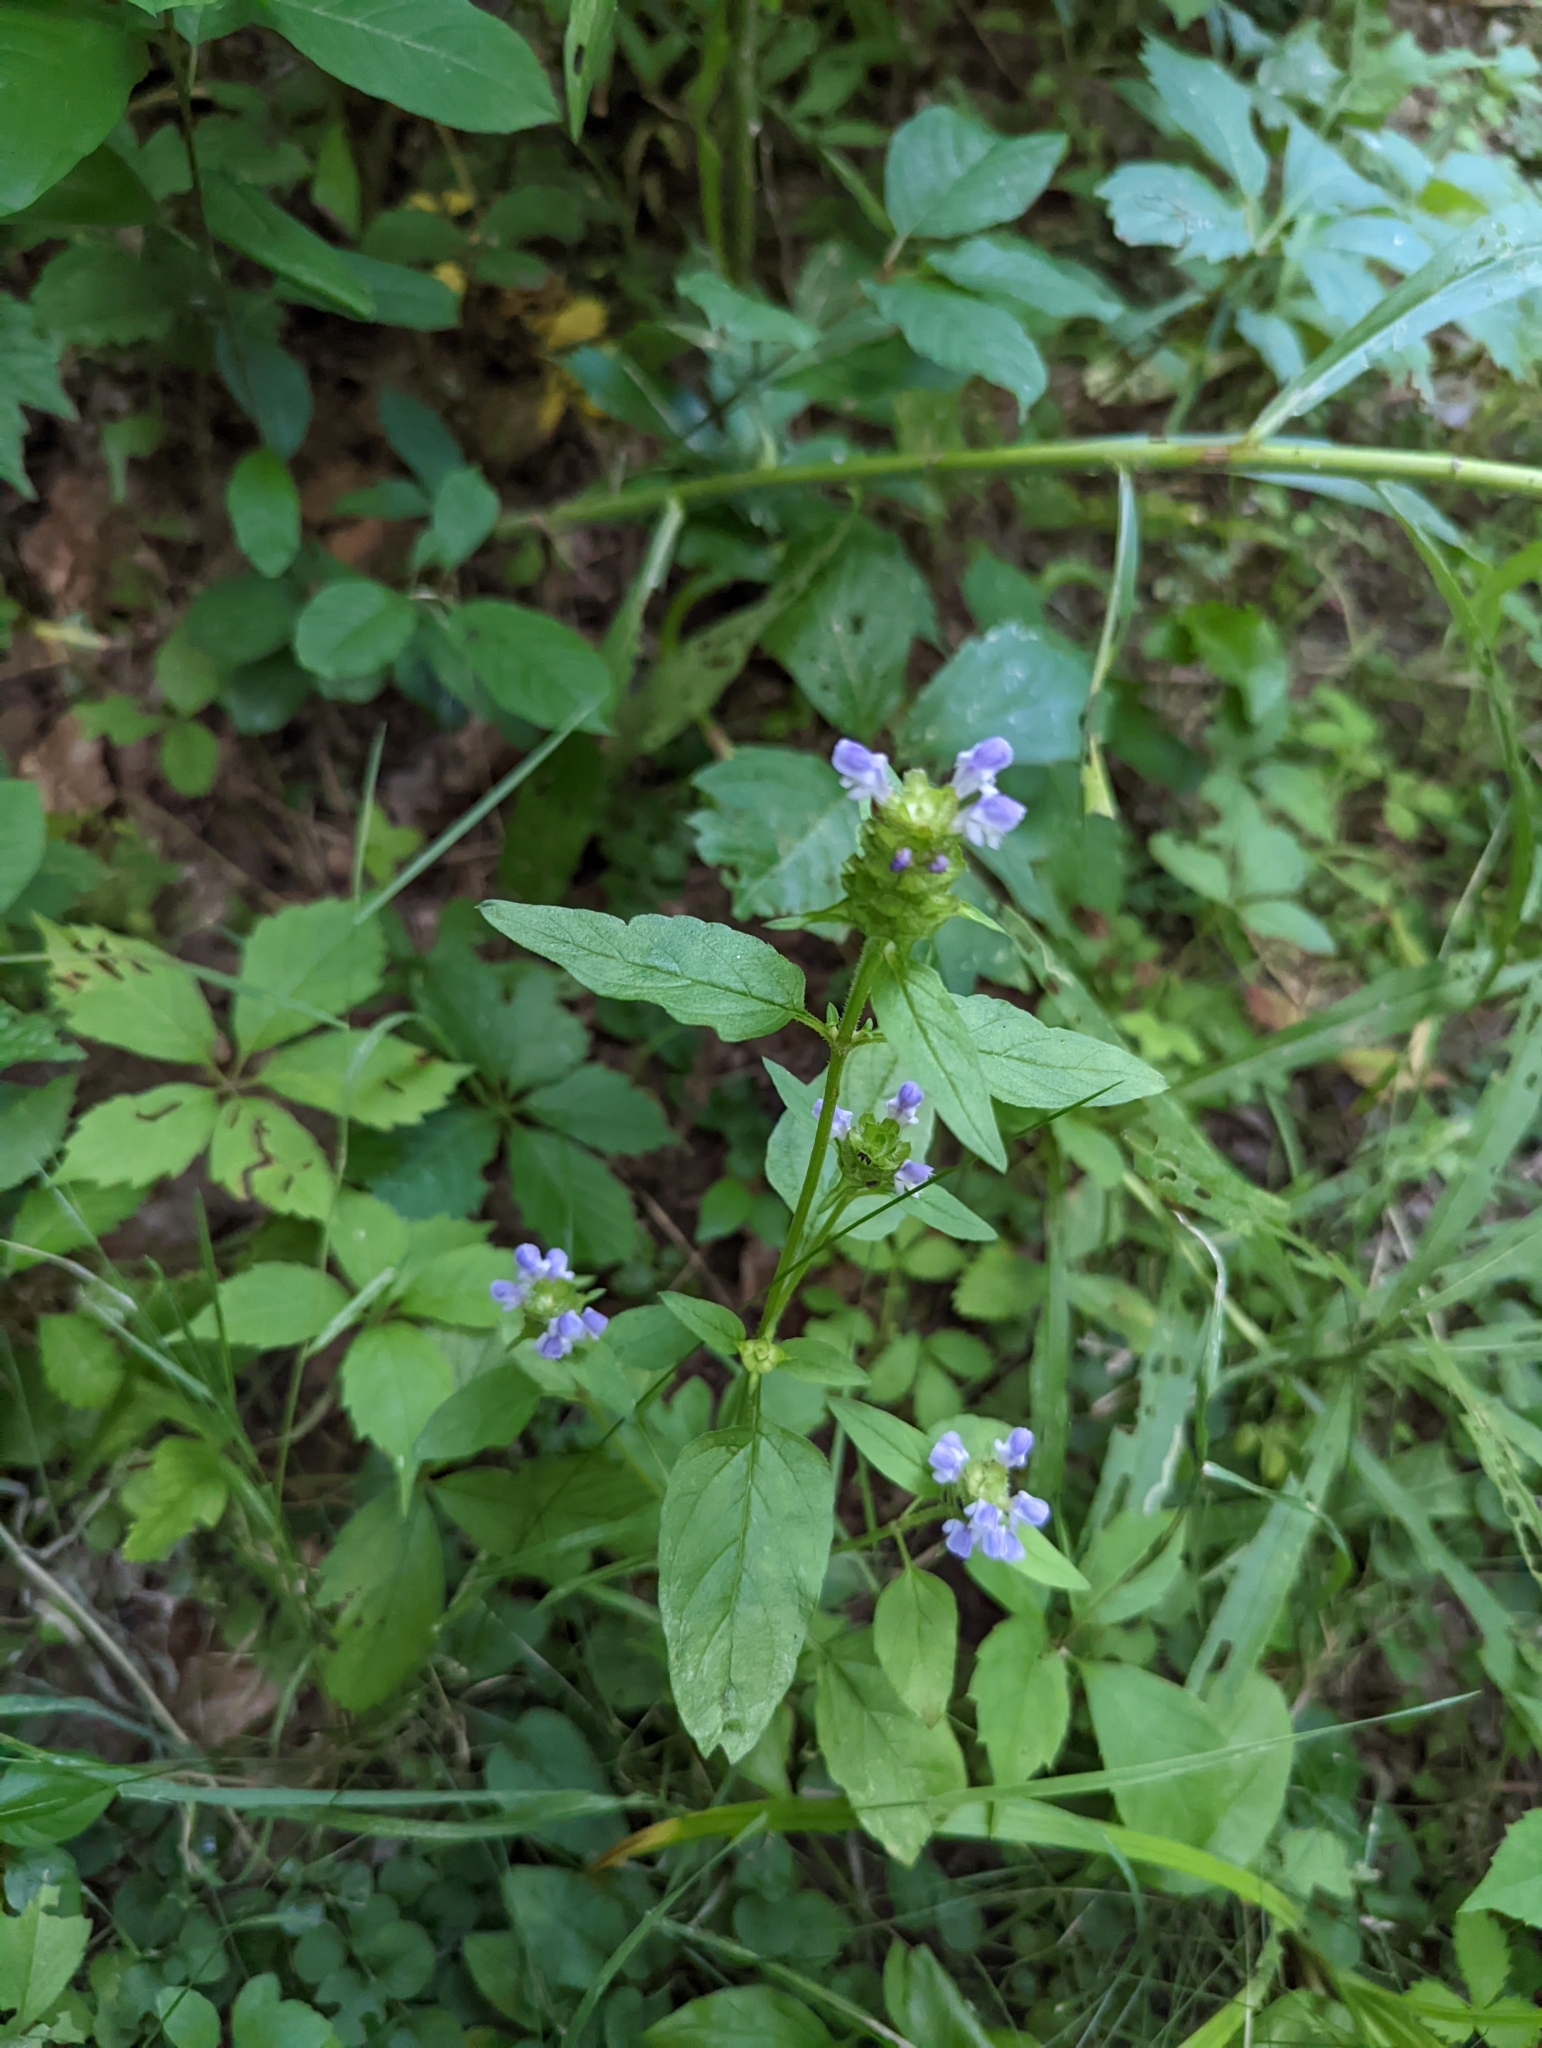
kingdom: Plantae
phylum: Tracheophyta
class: Magnoliopsida
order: Lamiales
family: Lamiaceae
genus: Prunella
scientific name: Prunella vulgaris
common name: Heal-all
